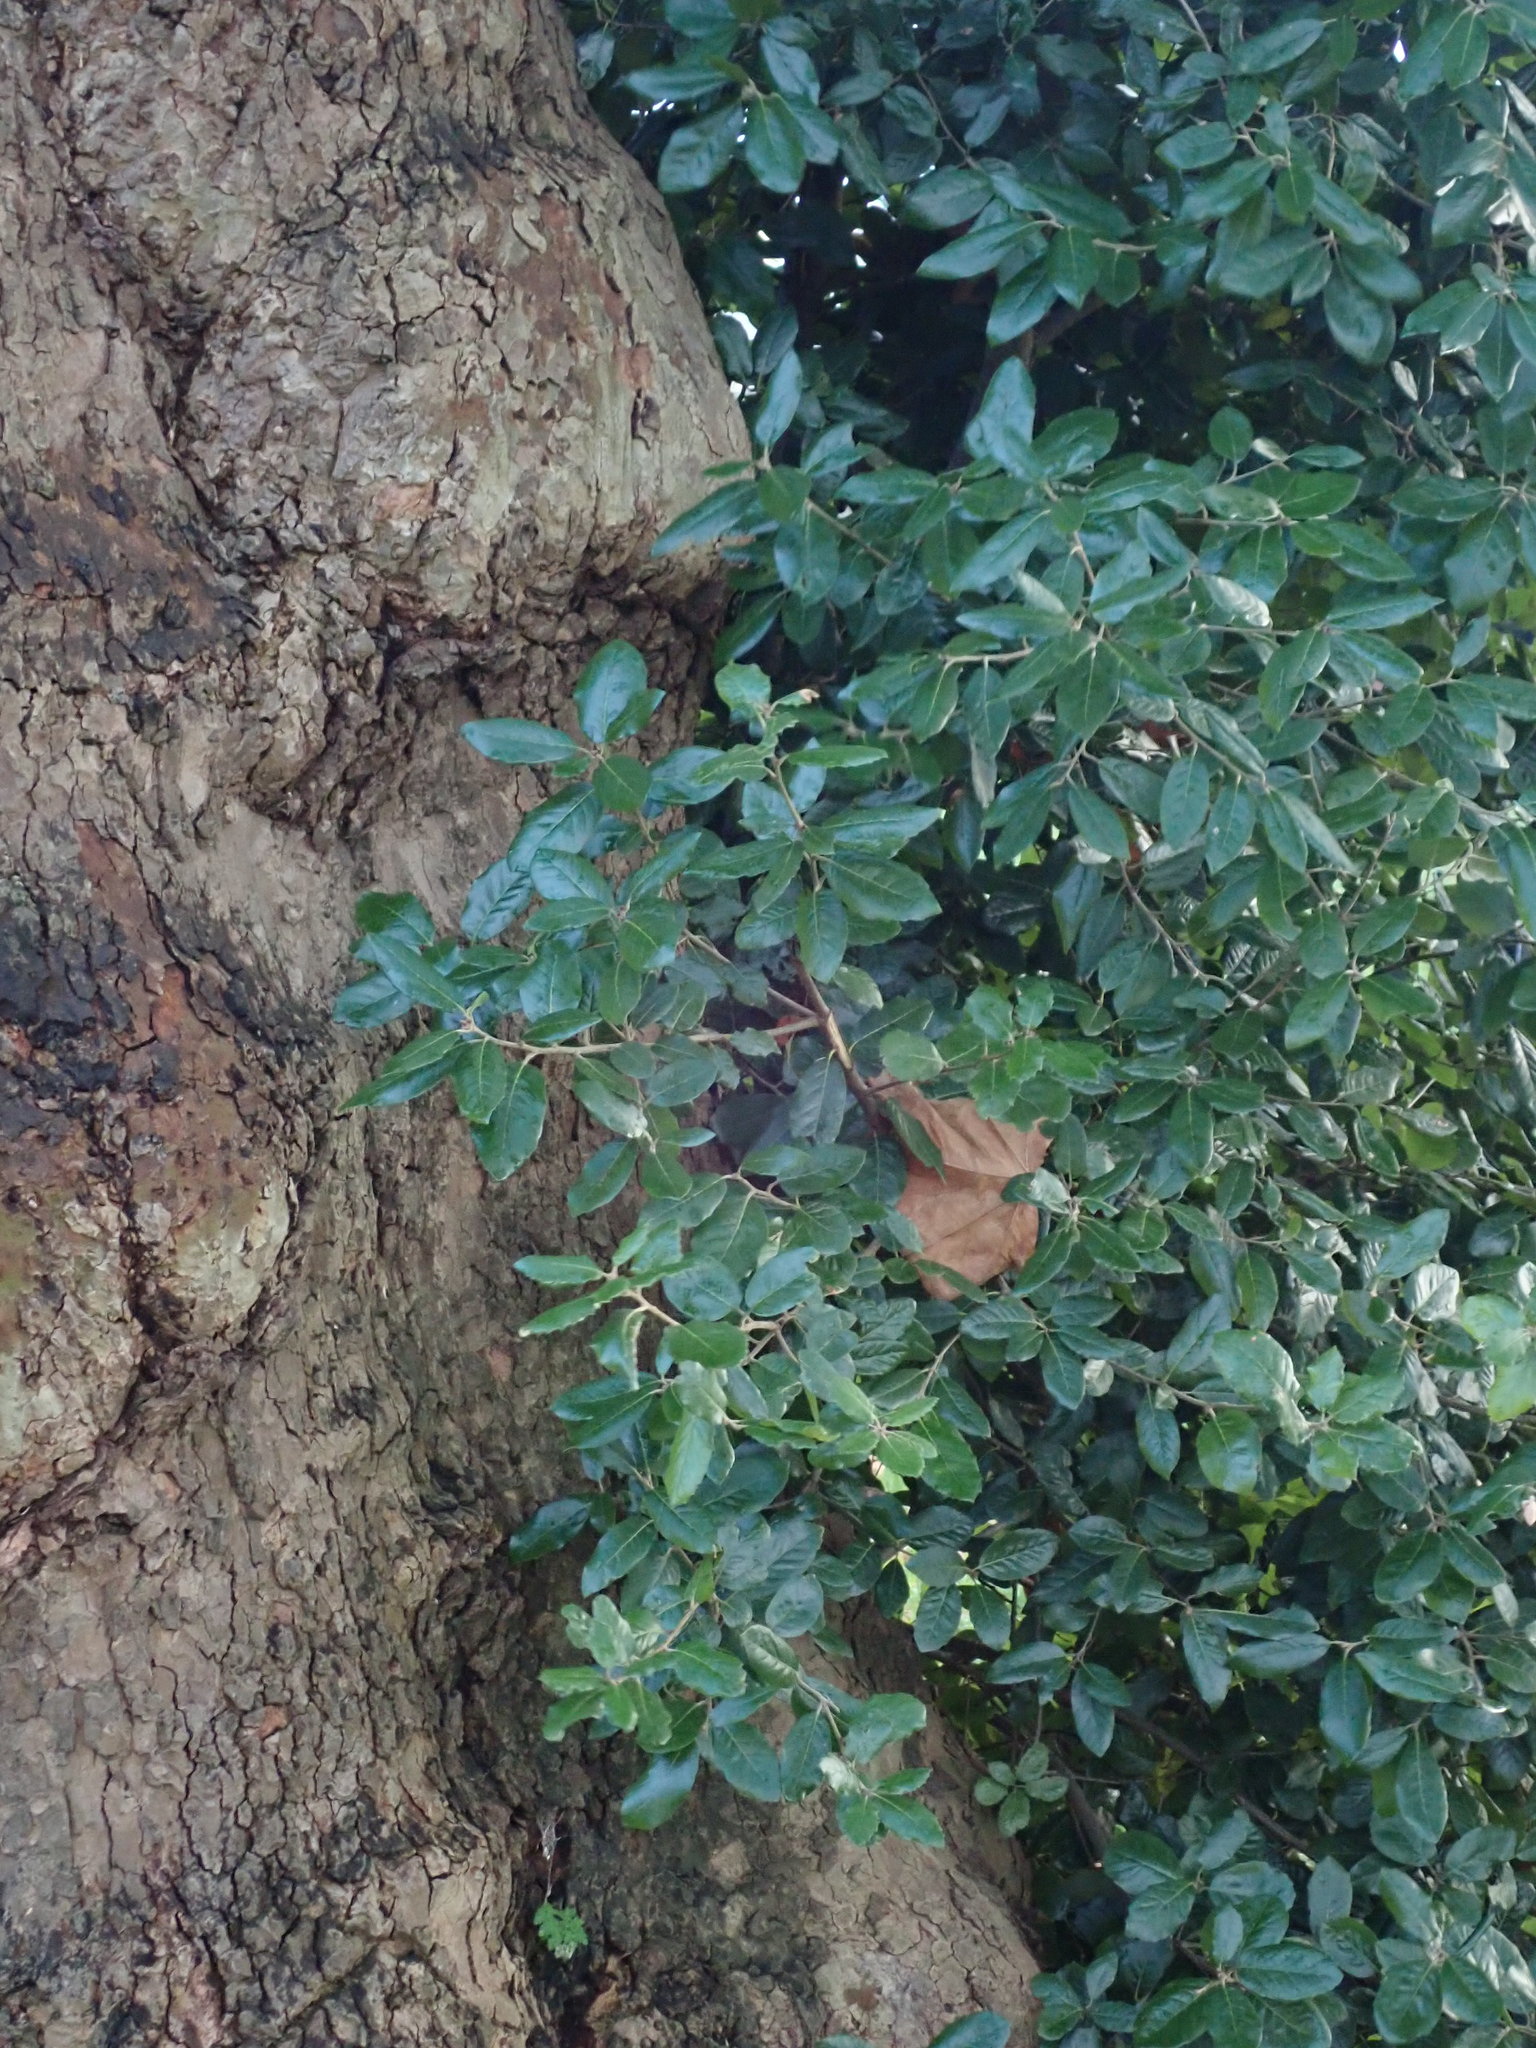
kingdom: Plantae
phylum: Tracheophyta
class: Magnoliopsida
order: Fagales
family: Fagaceae
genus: Quercus
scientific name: Quercus ilex
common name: Evergreen oak
